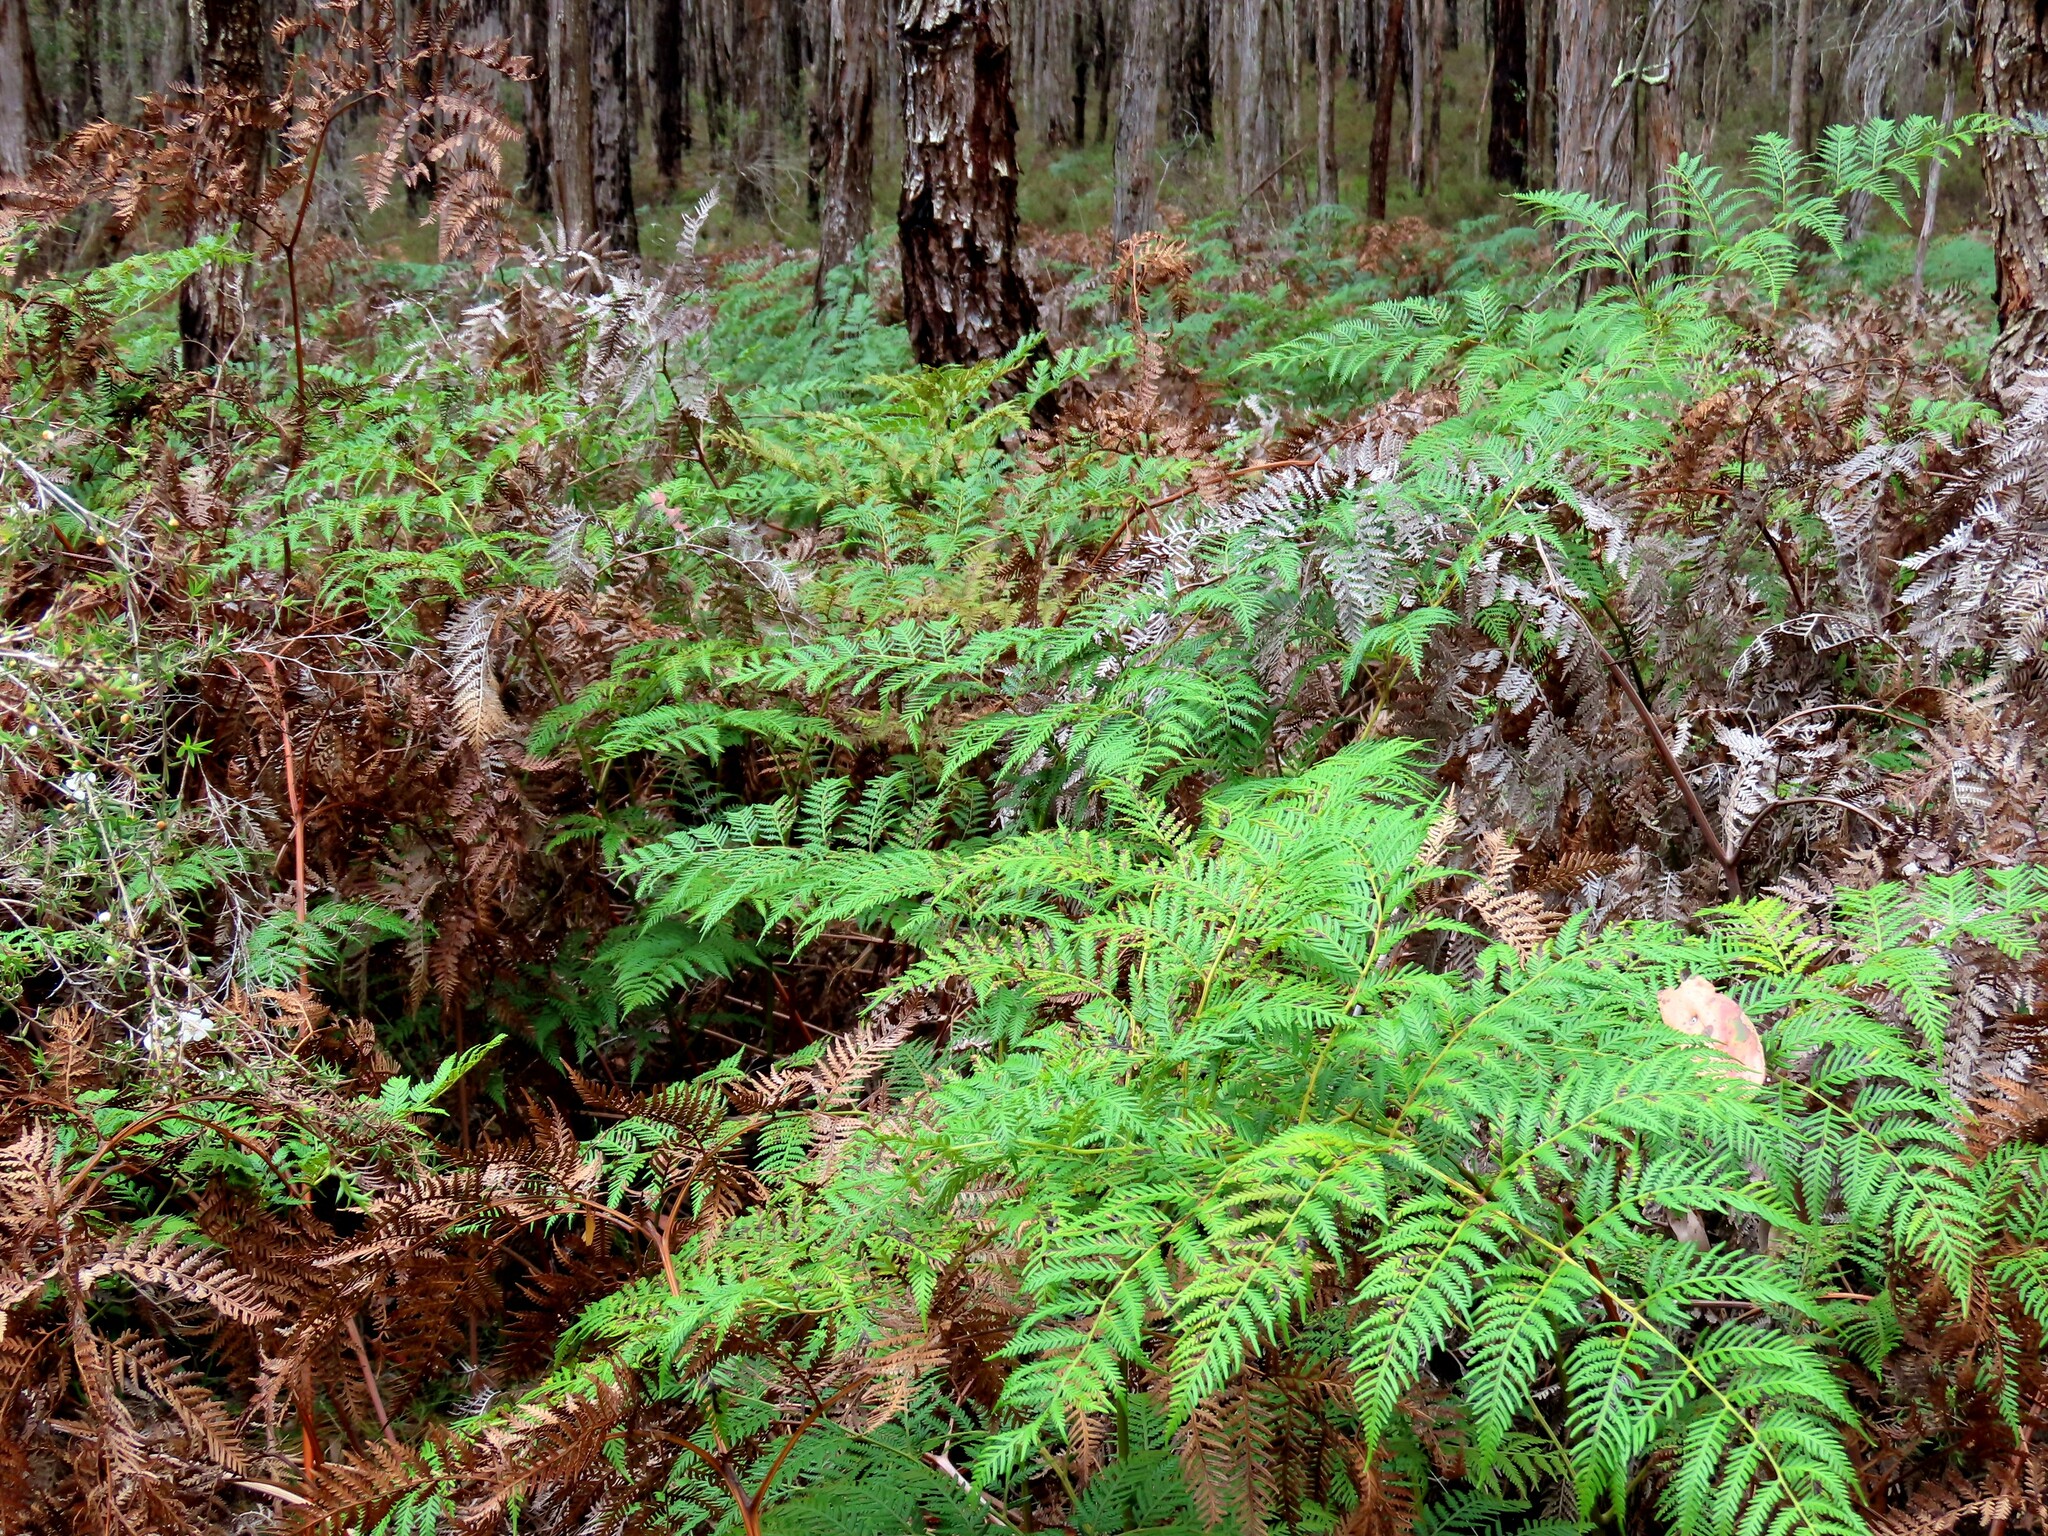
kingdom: Plantae
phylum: Tracheophyta
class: Polypodiopsida
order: Polypodiales
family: Dennstaedtiaceae
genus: Pteridium
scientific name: Pteridium esculentum
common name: Bracken fern
